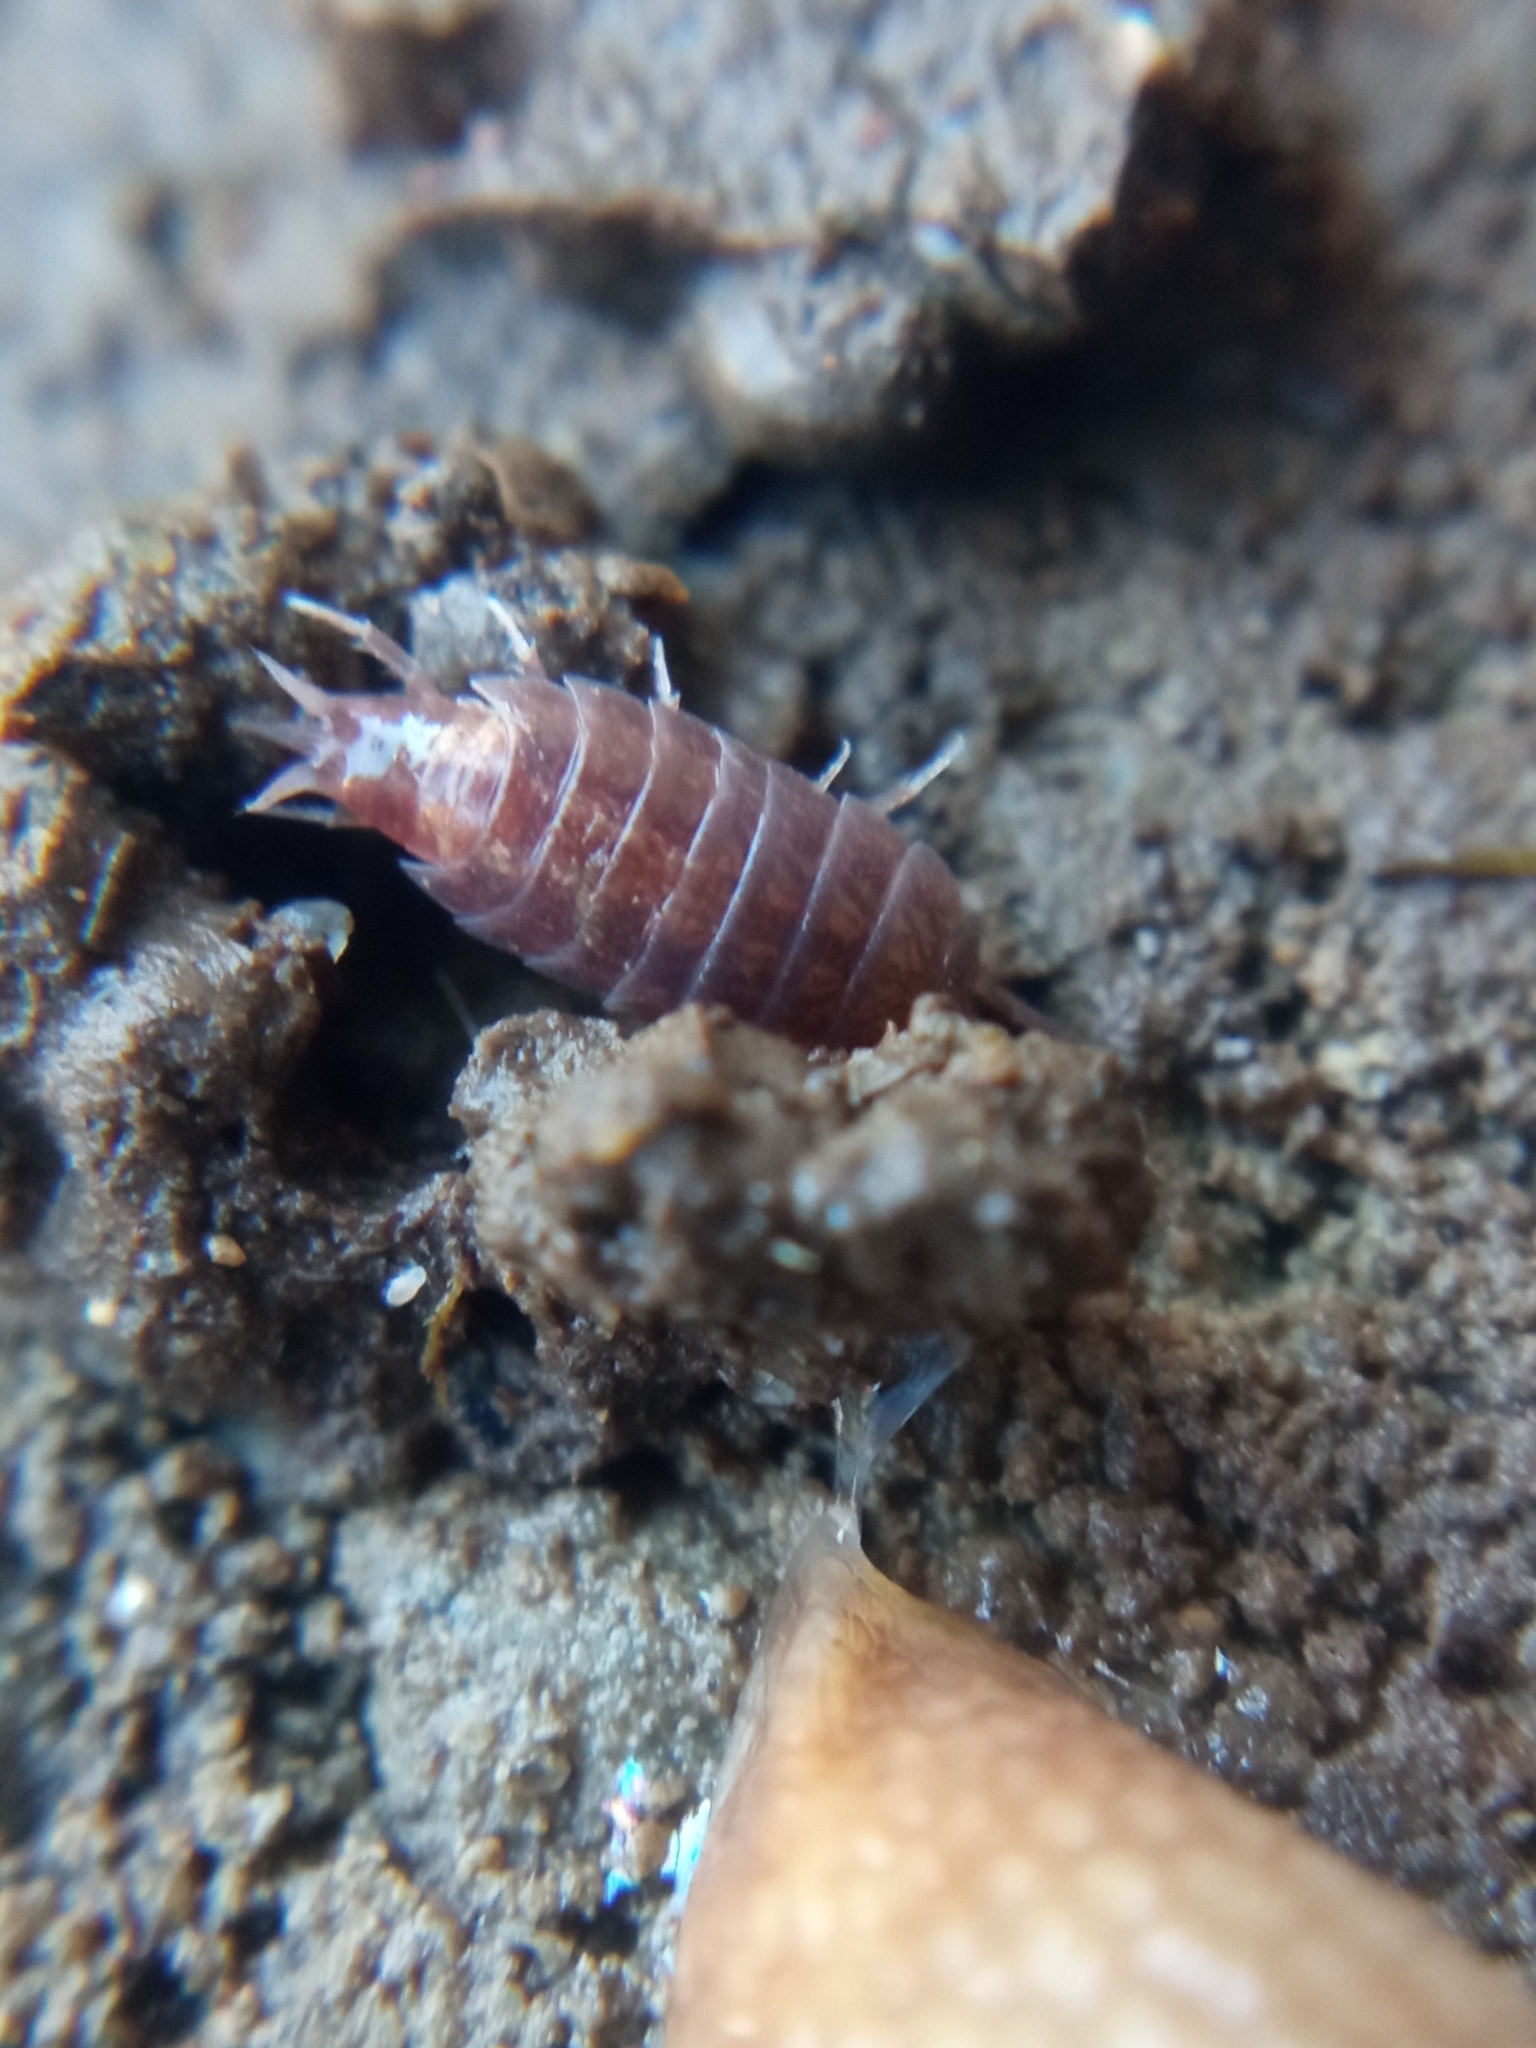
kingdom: Animalia
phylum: Arthropoda
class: Malacostraca
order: Isopoda
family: Trichoniscidae
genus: Hyloniscus
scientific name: Hyloniscus riparius
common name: Isopod
